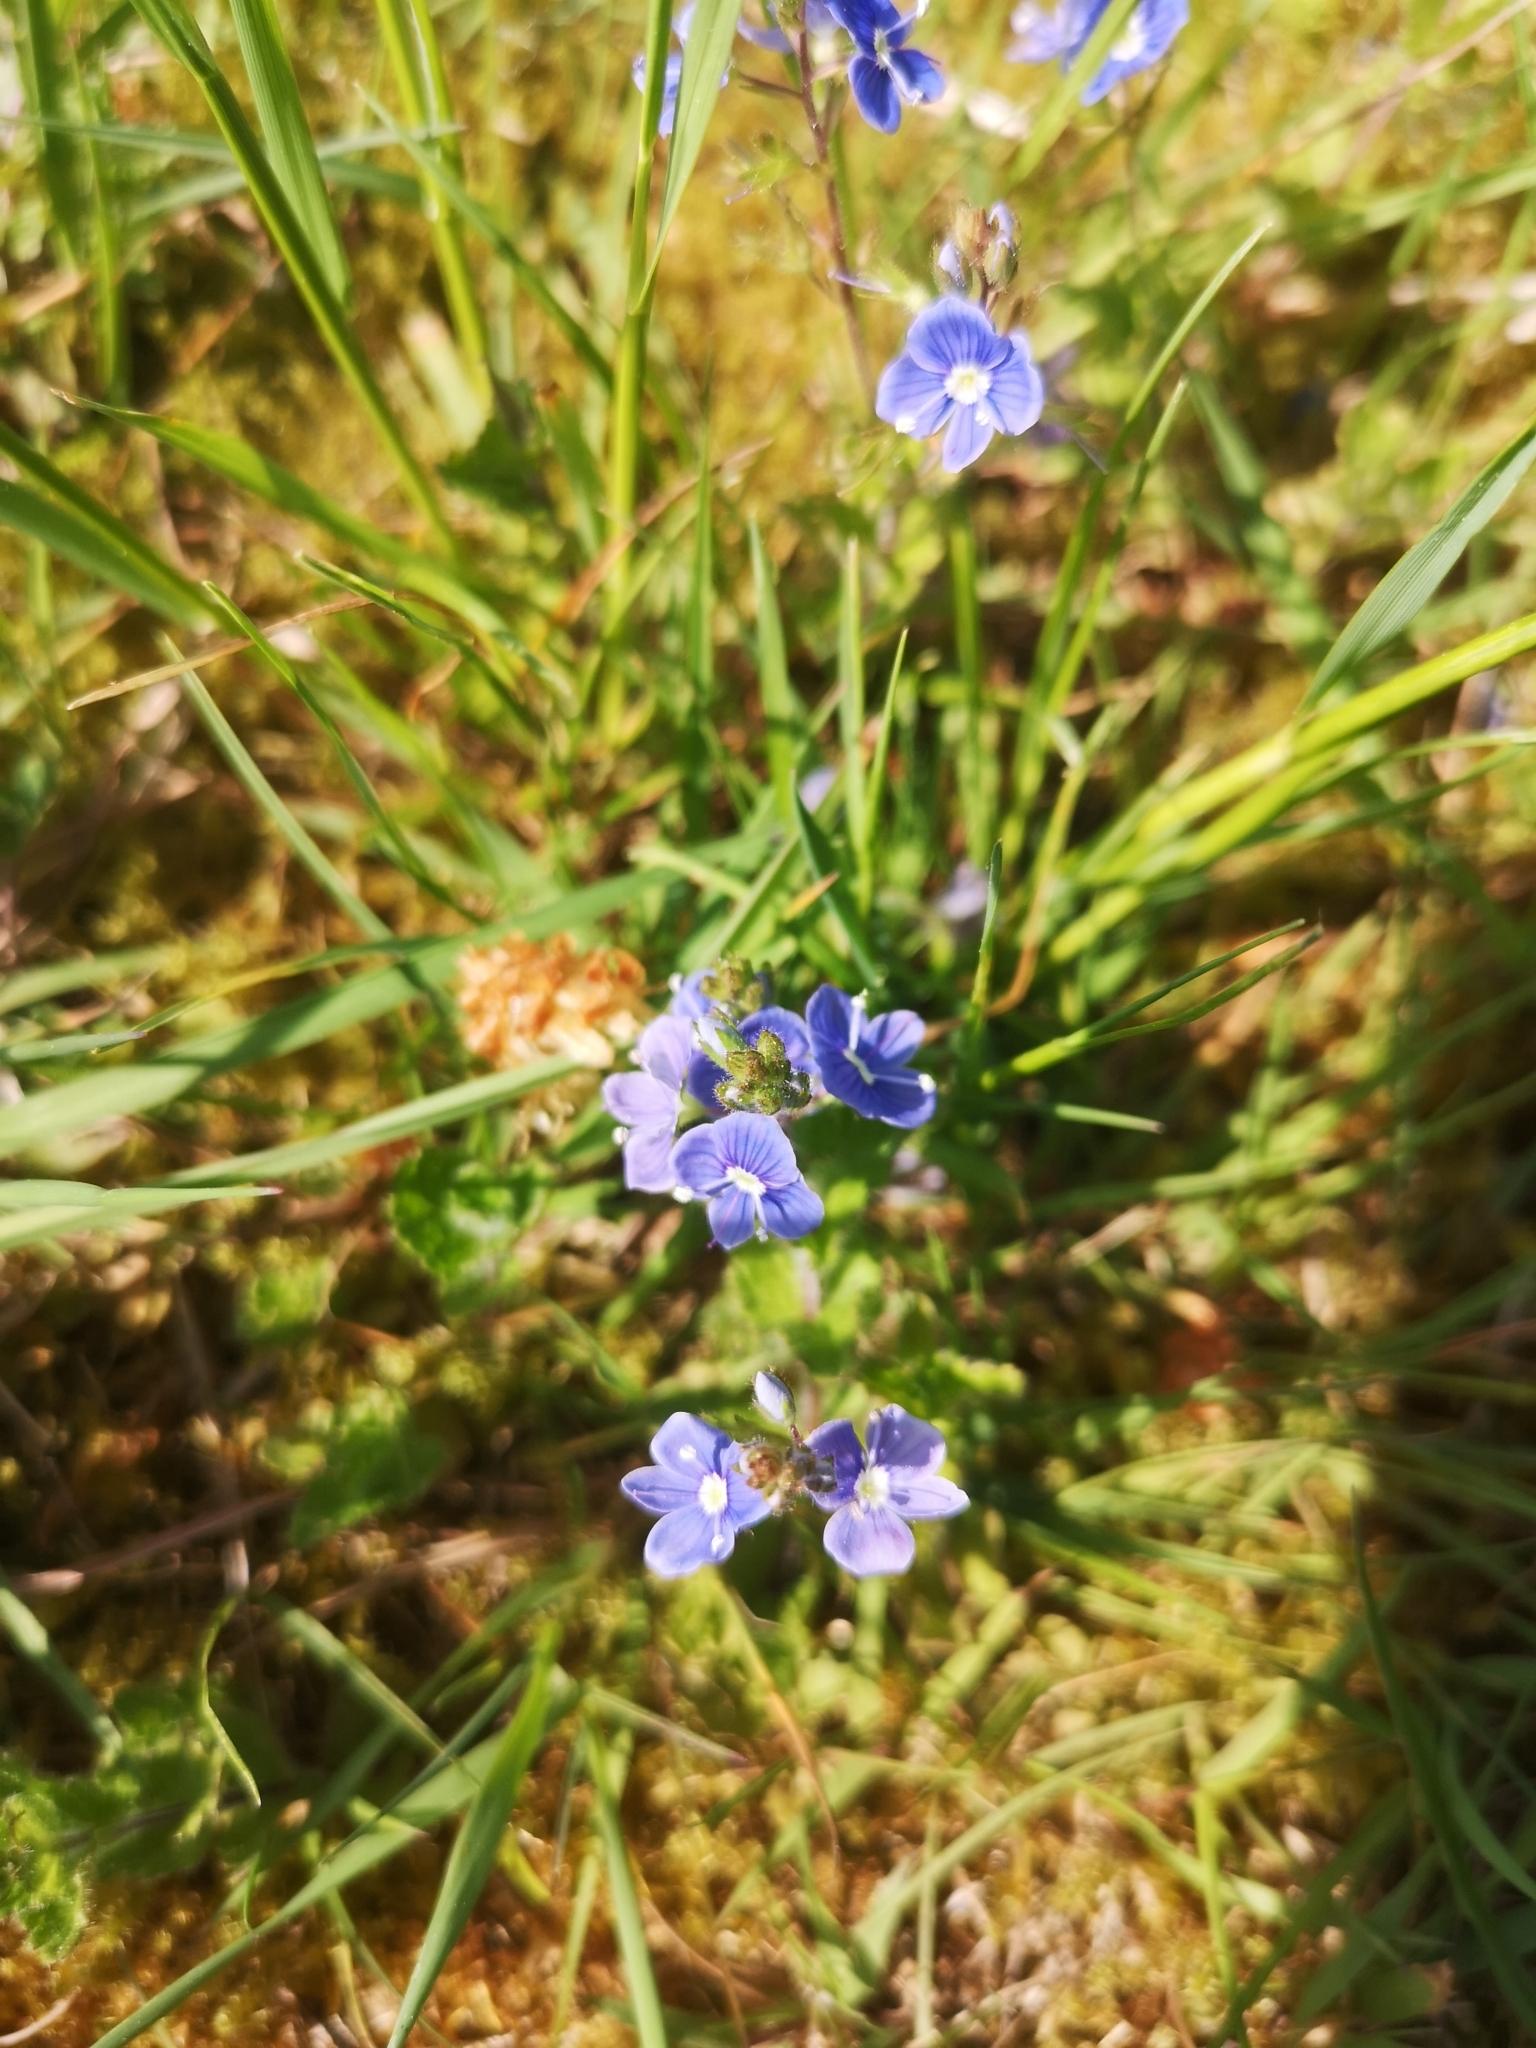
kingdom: Plantae
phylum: Tracheophyta
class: Magnoliopsida
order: Lamiales
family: Plantaginaceae
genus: Veronica
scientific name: Veronica chamaedrys
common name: Germander speedwell
